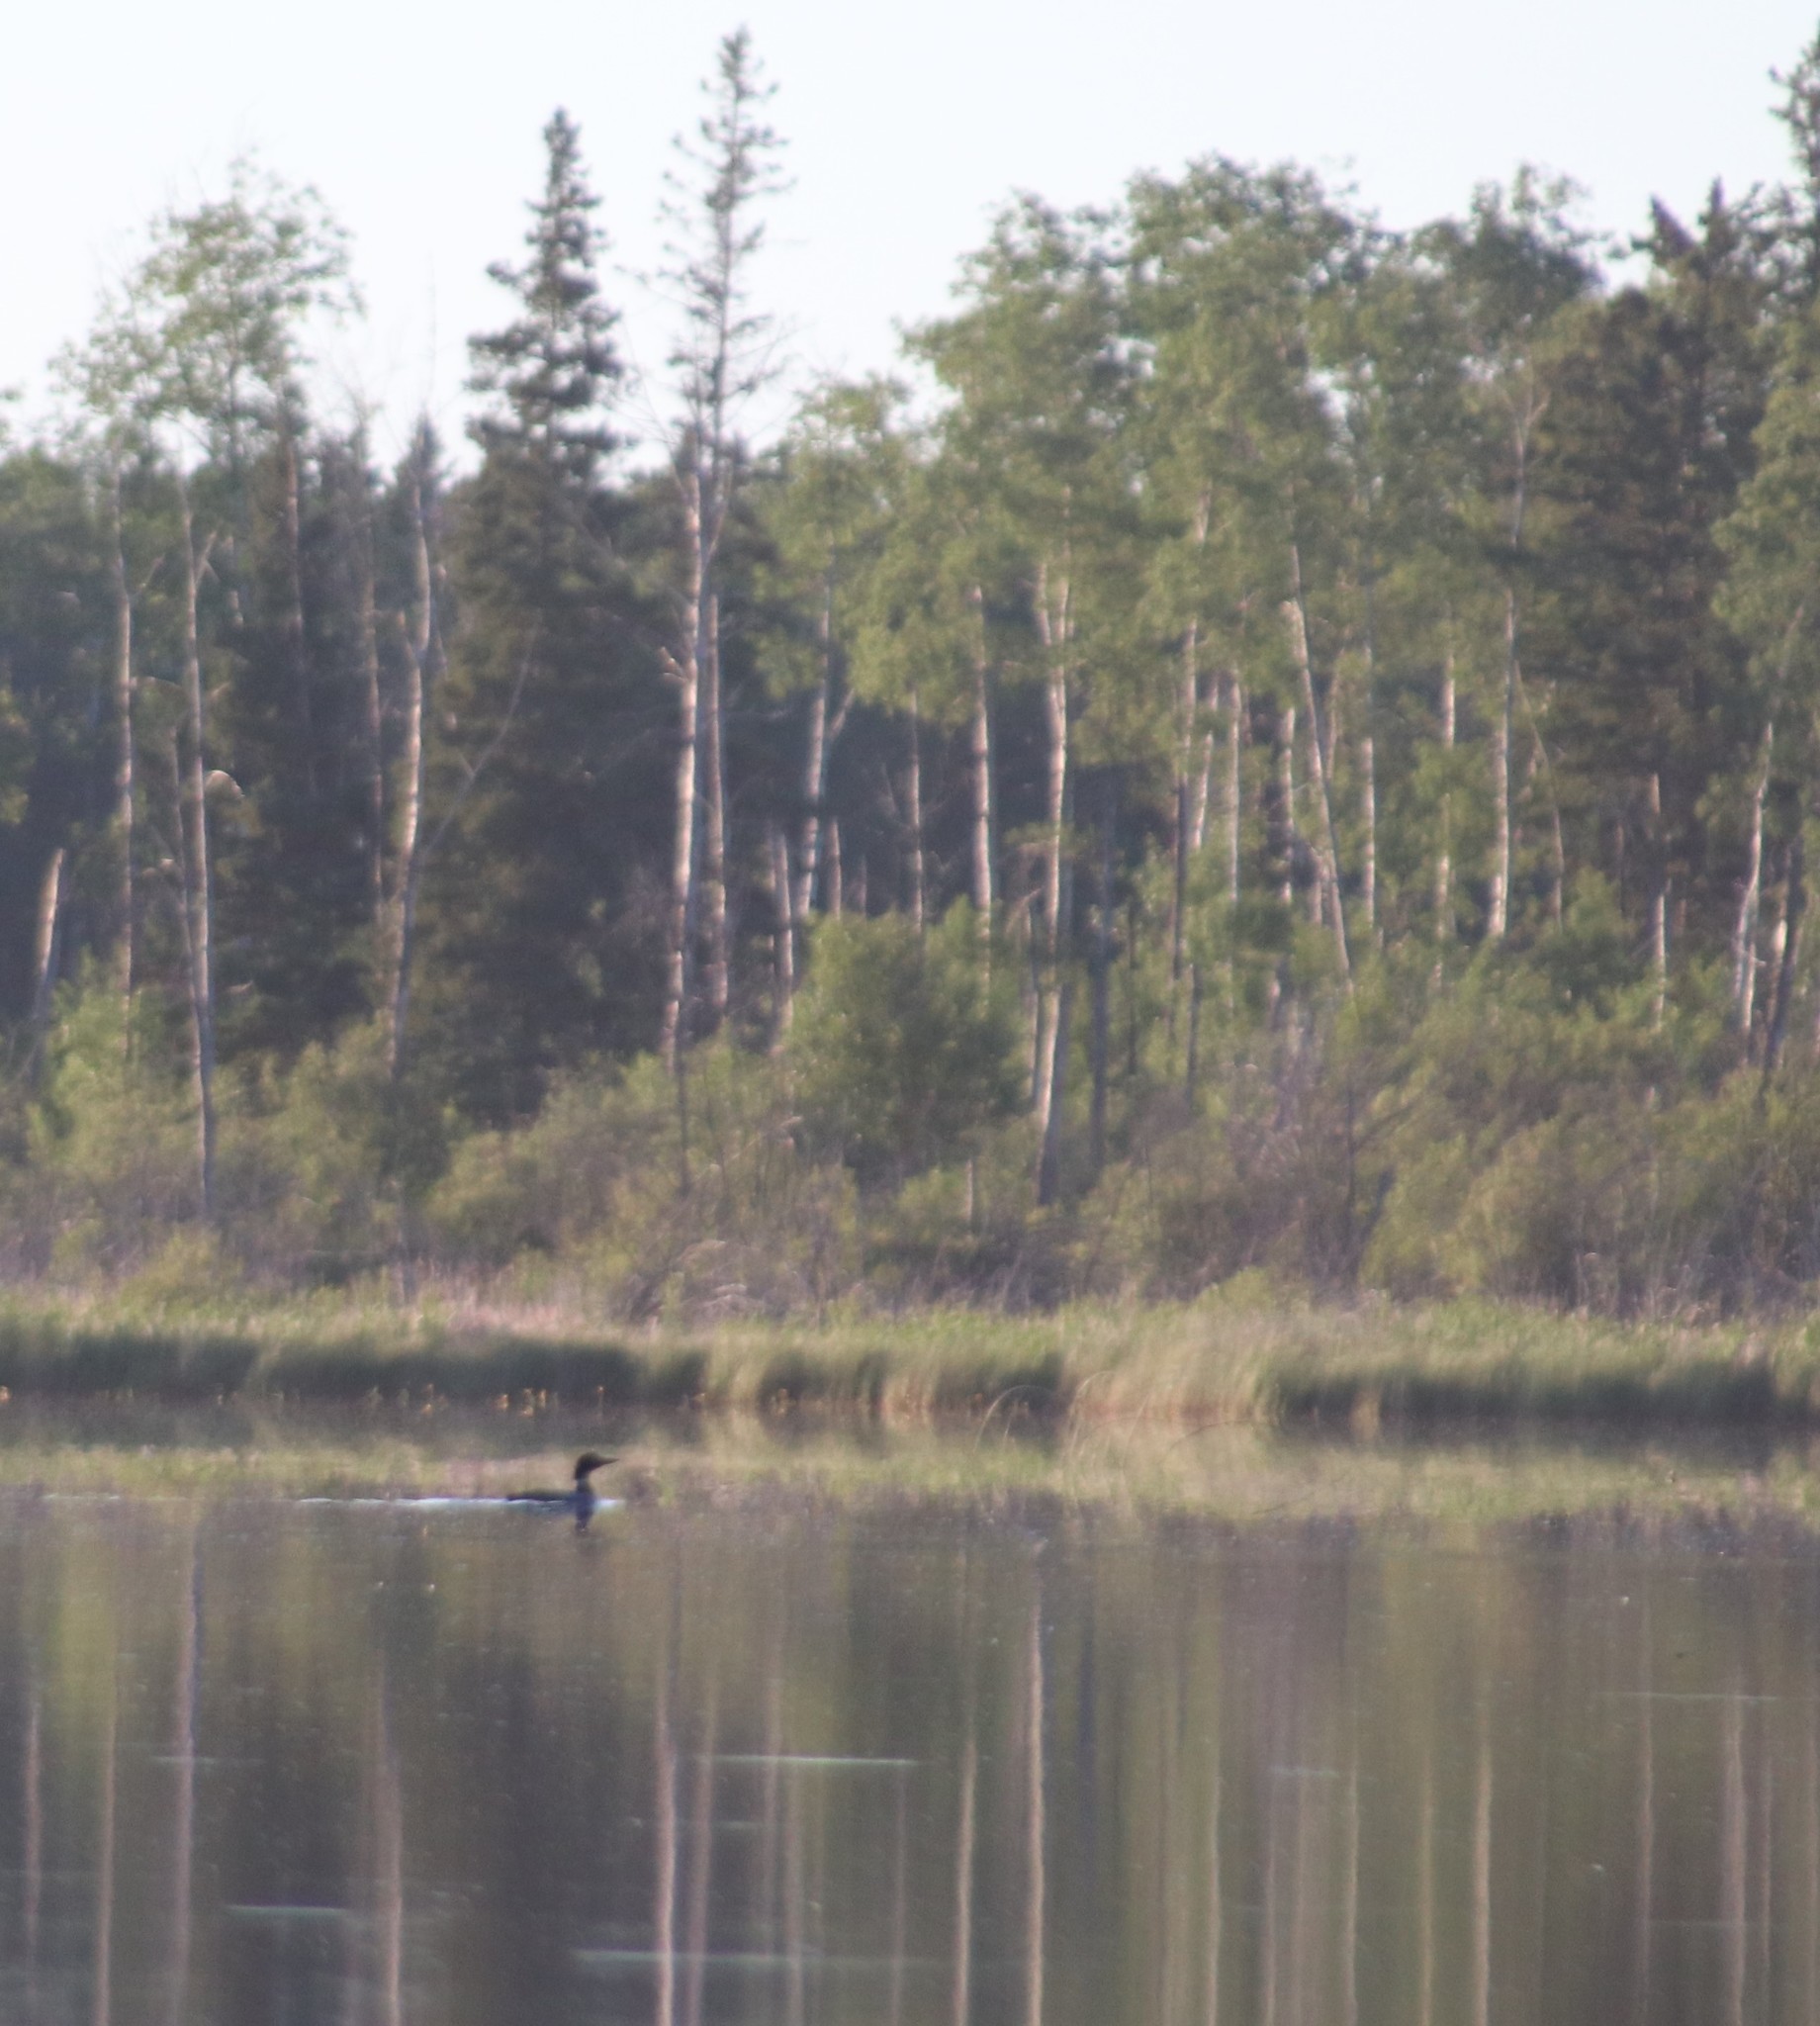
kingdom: Animalia
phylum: Chordata
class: Aves
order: Gaviiformes
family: Gaviidae
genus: Gavia
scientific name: Gavia immer
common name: Common loon
